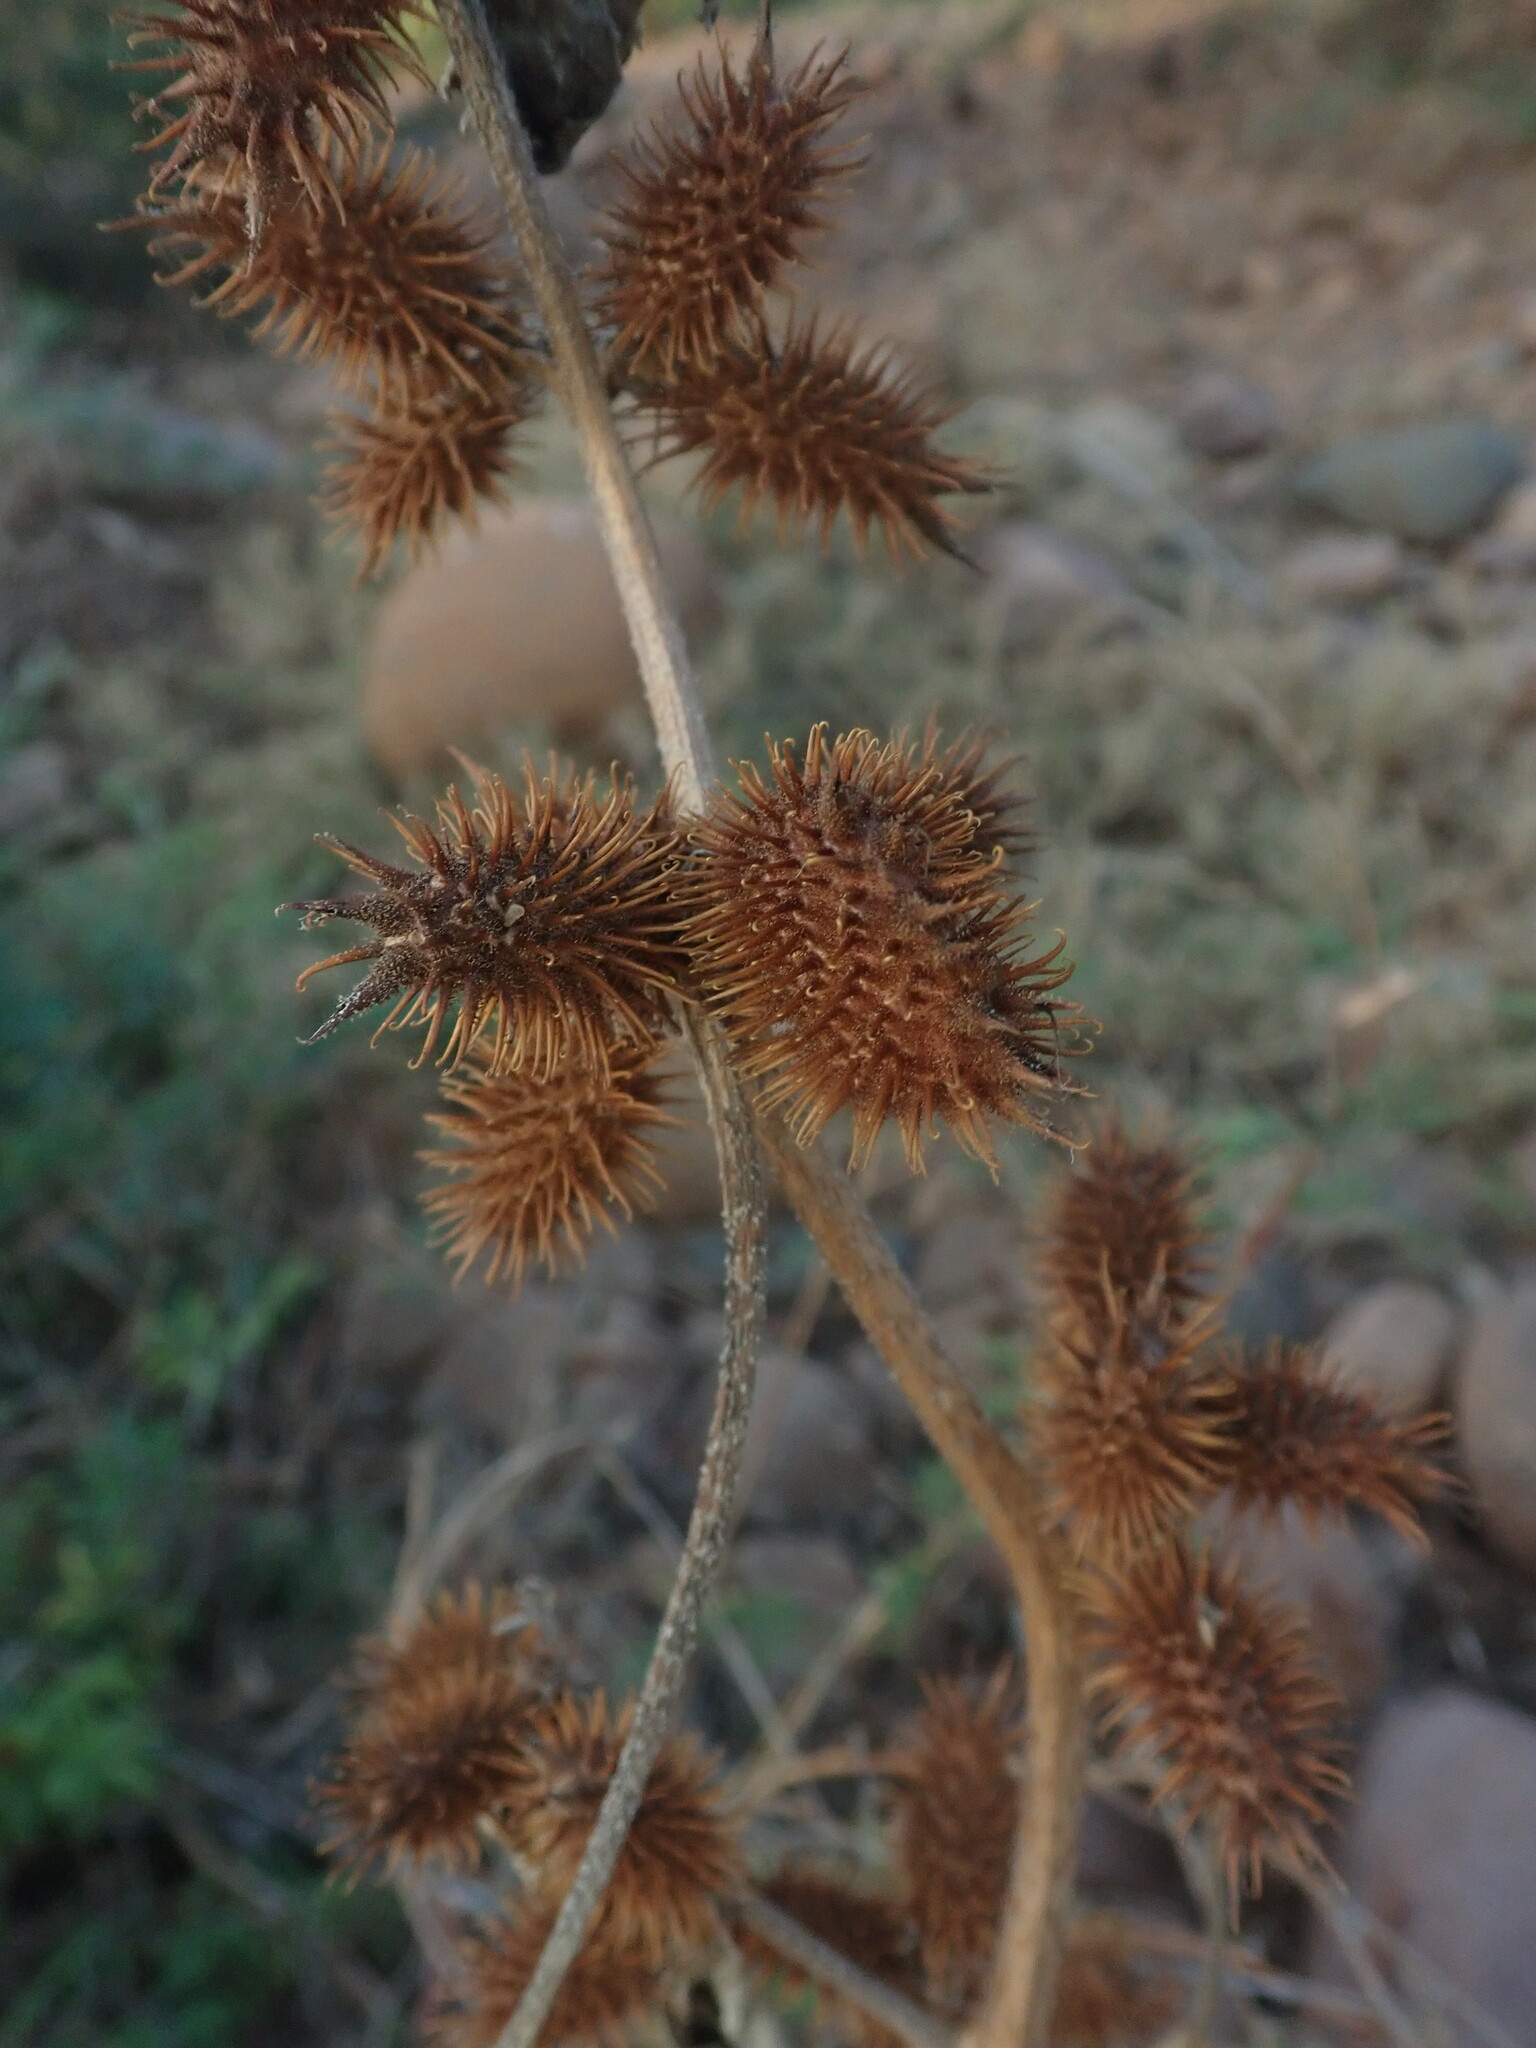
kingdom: Plantae
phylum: Tracheophyta
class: Magnoliopsida
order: Asterales
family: Asteraceae
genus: Xanthium
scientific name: Xanthium strumarium
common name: Rough cocklebur
